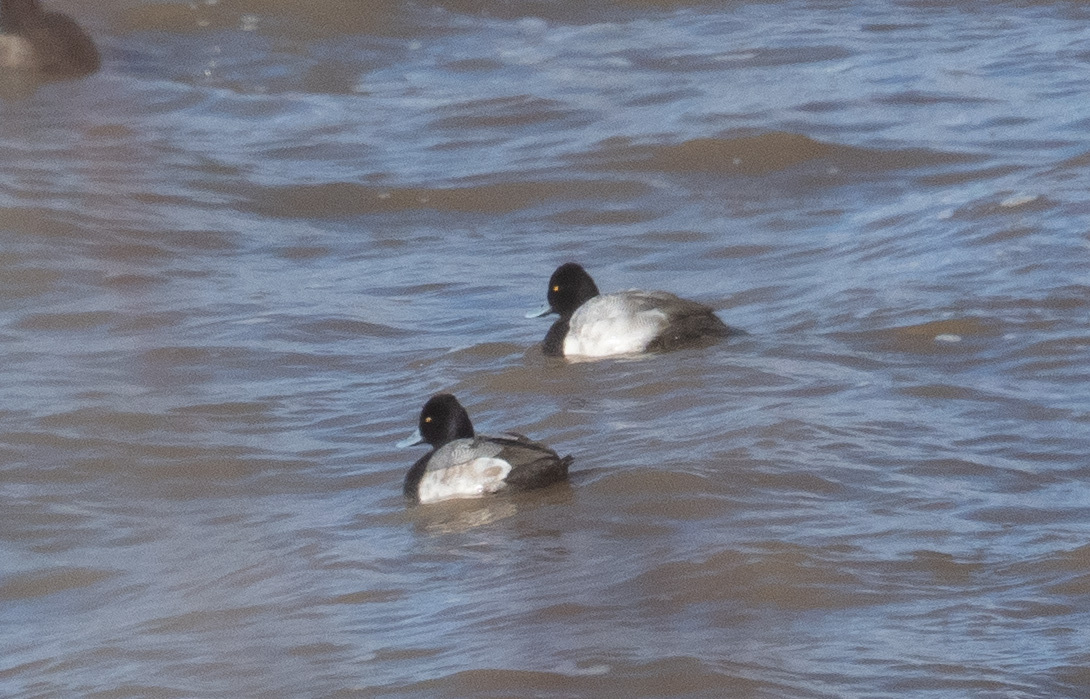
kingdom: Animalia
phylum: Chordata
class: Aves
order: Anseriformes
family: Anatidae
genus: Aythya
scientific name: Aythya affinis
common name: Lesser scaup
